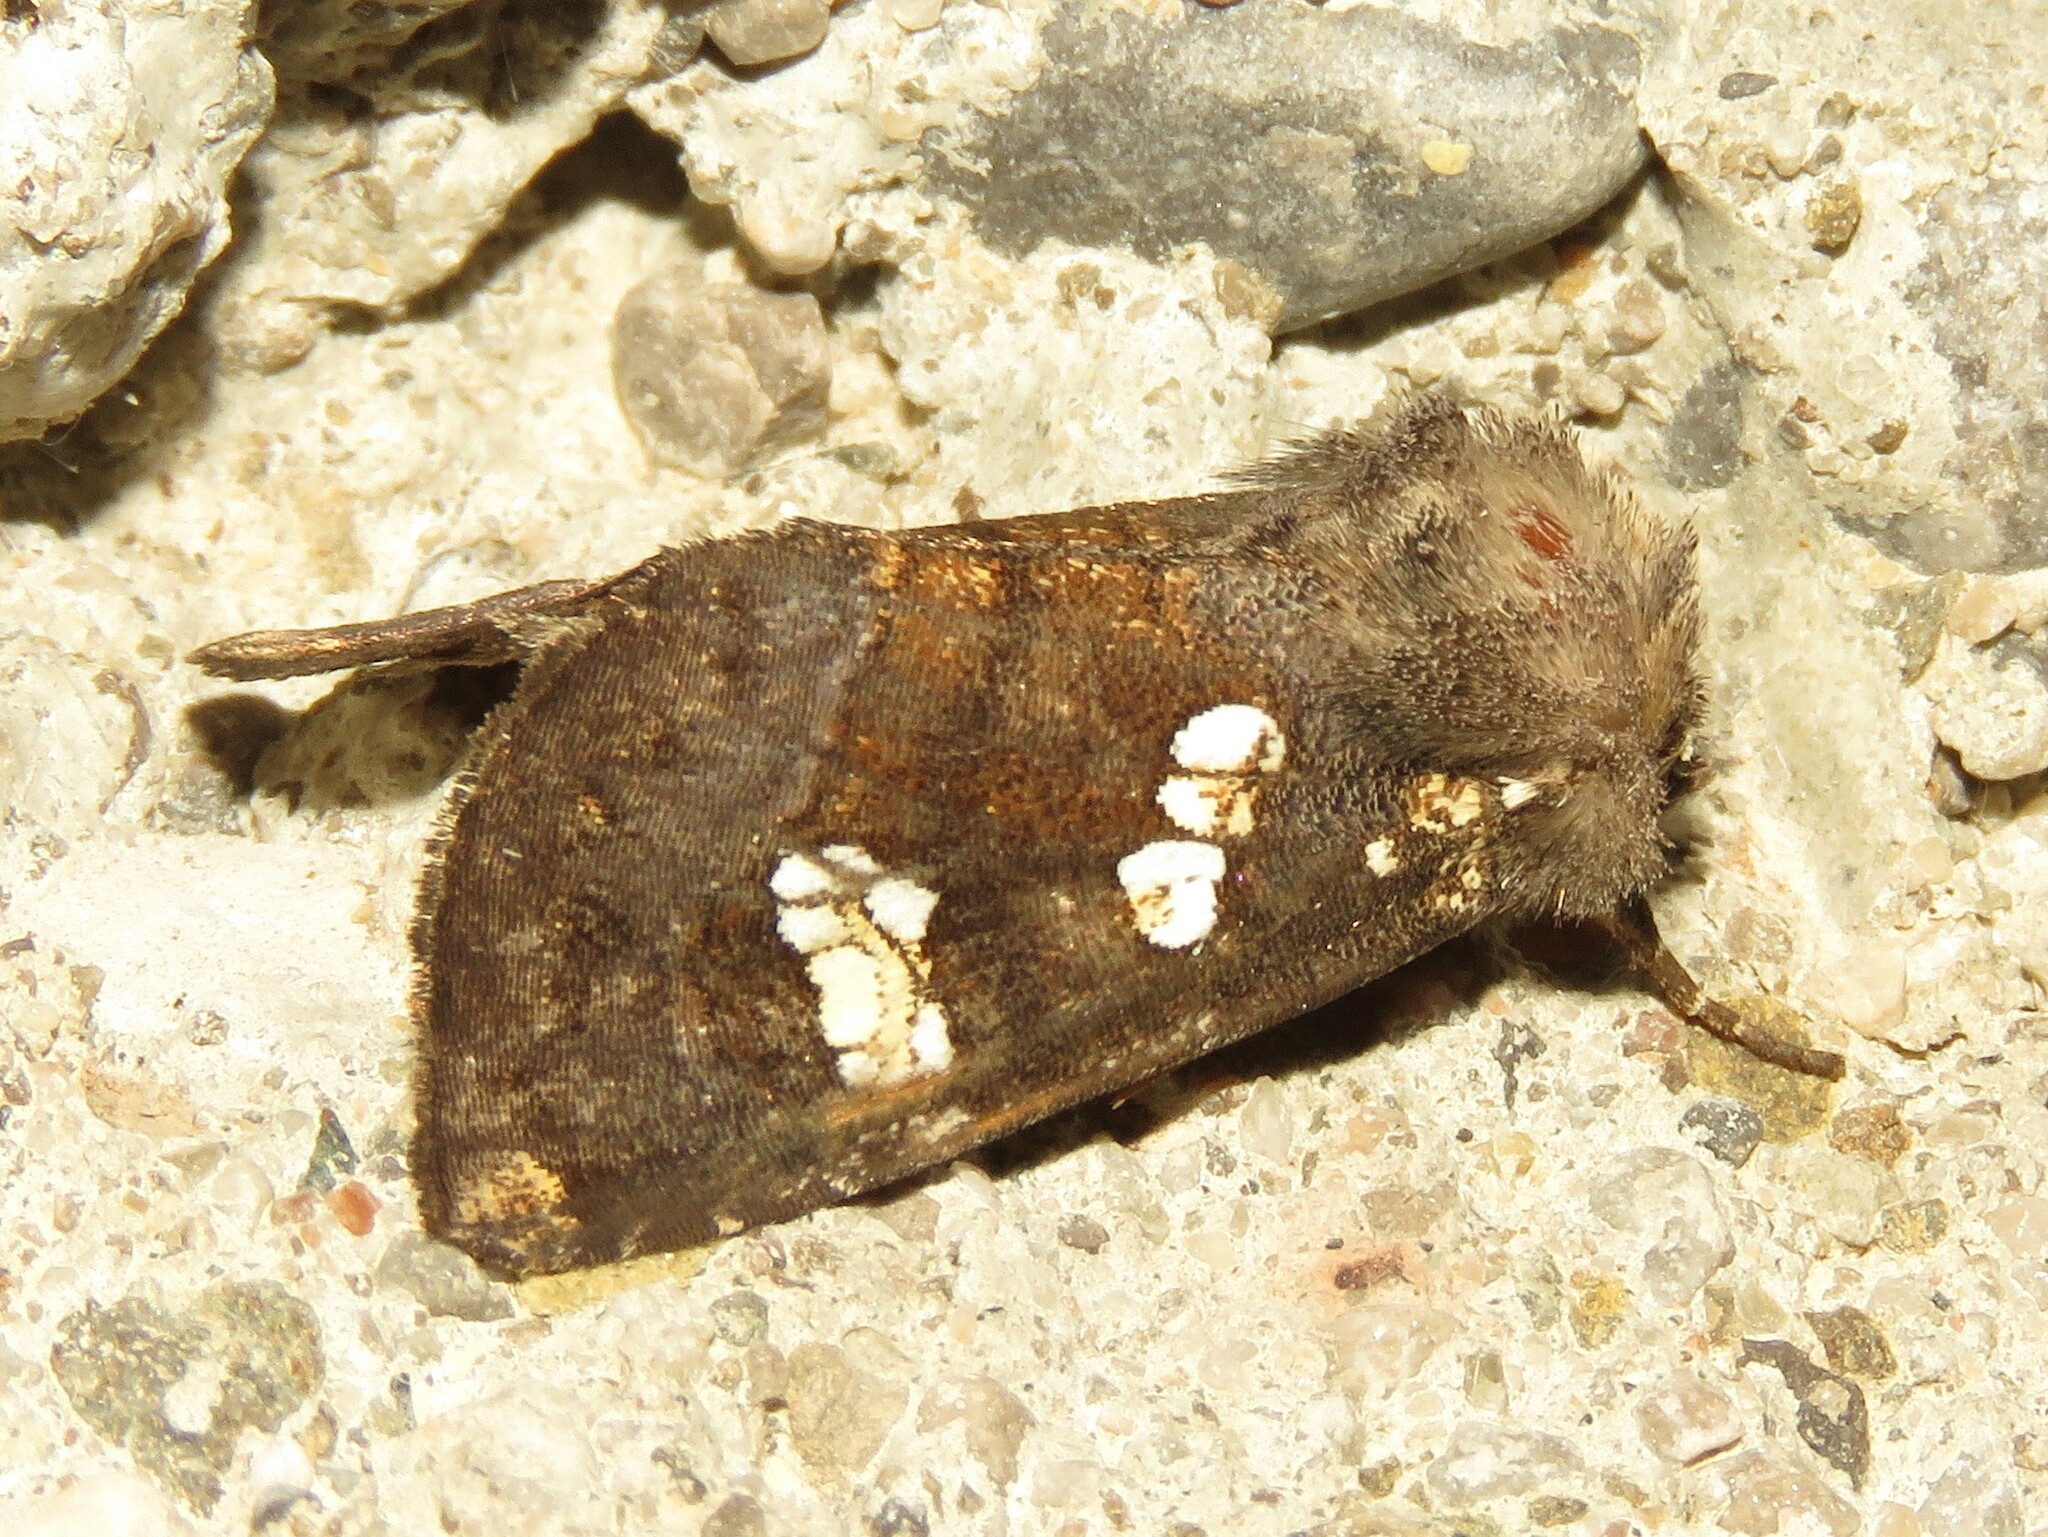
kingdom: Animalia
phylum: Arthropoda
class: Insecta
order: Lepidoptera
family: Noctuidae
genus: Papaipema
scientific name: Papaipema unimoda
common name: Meadow rue borer moth
